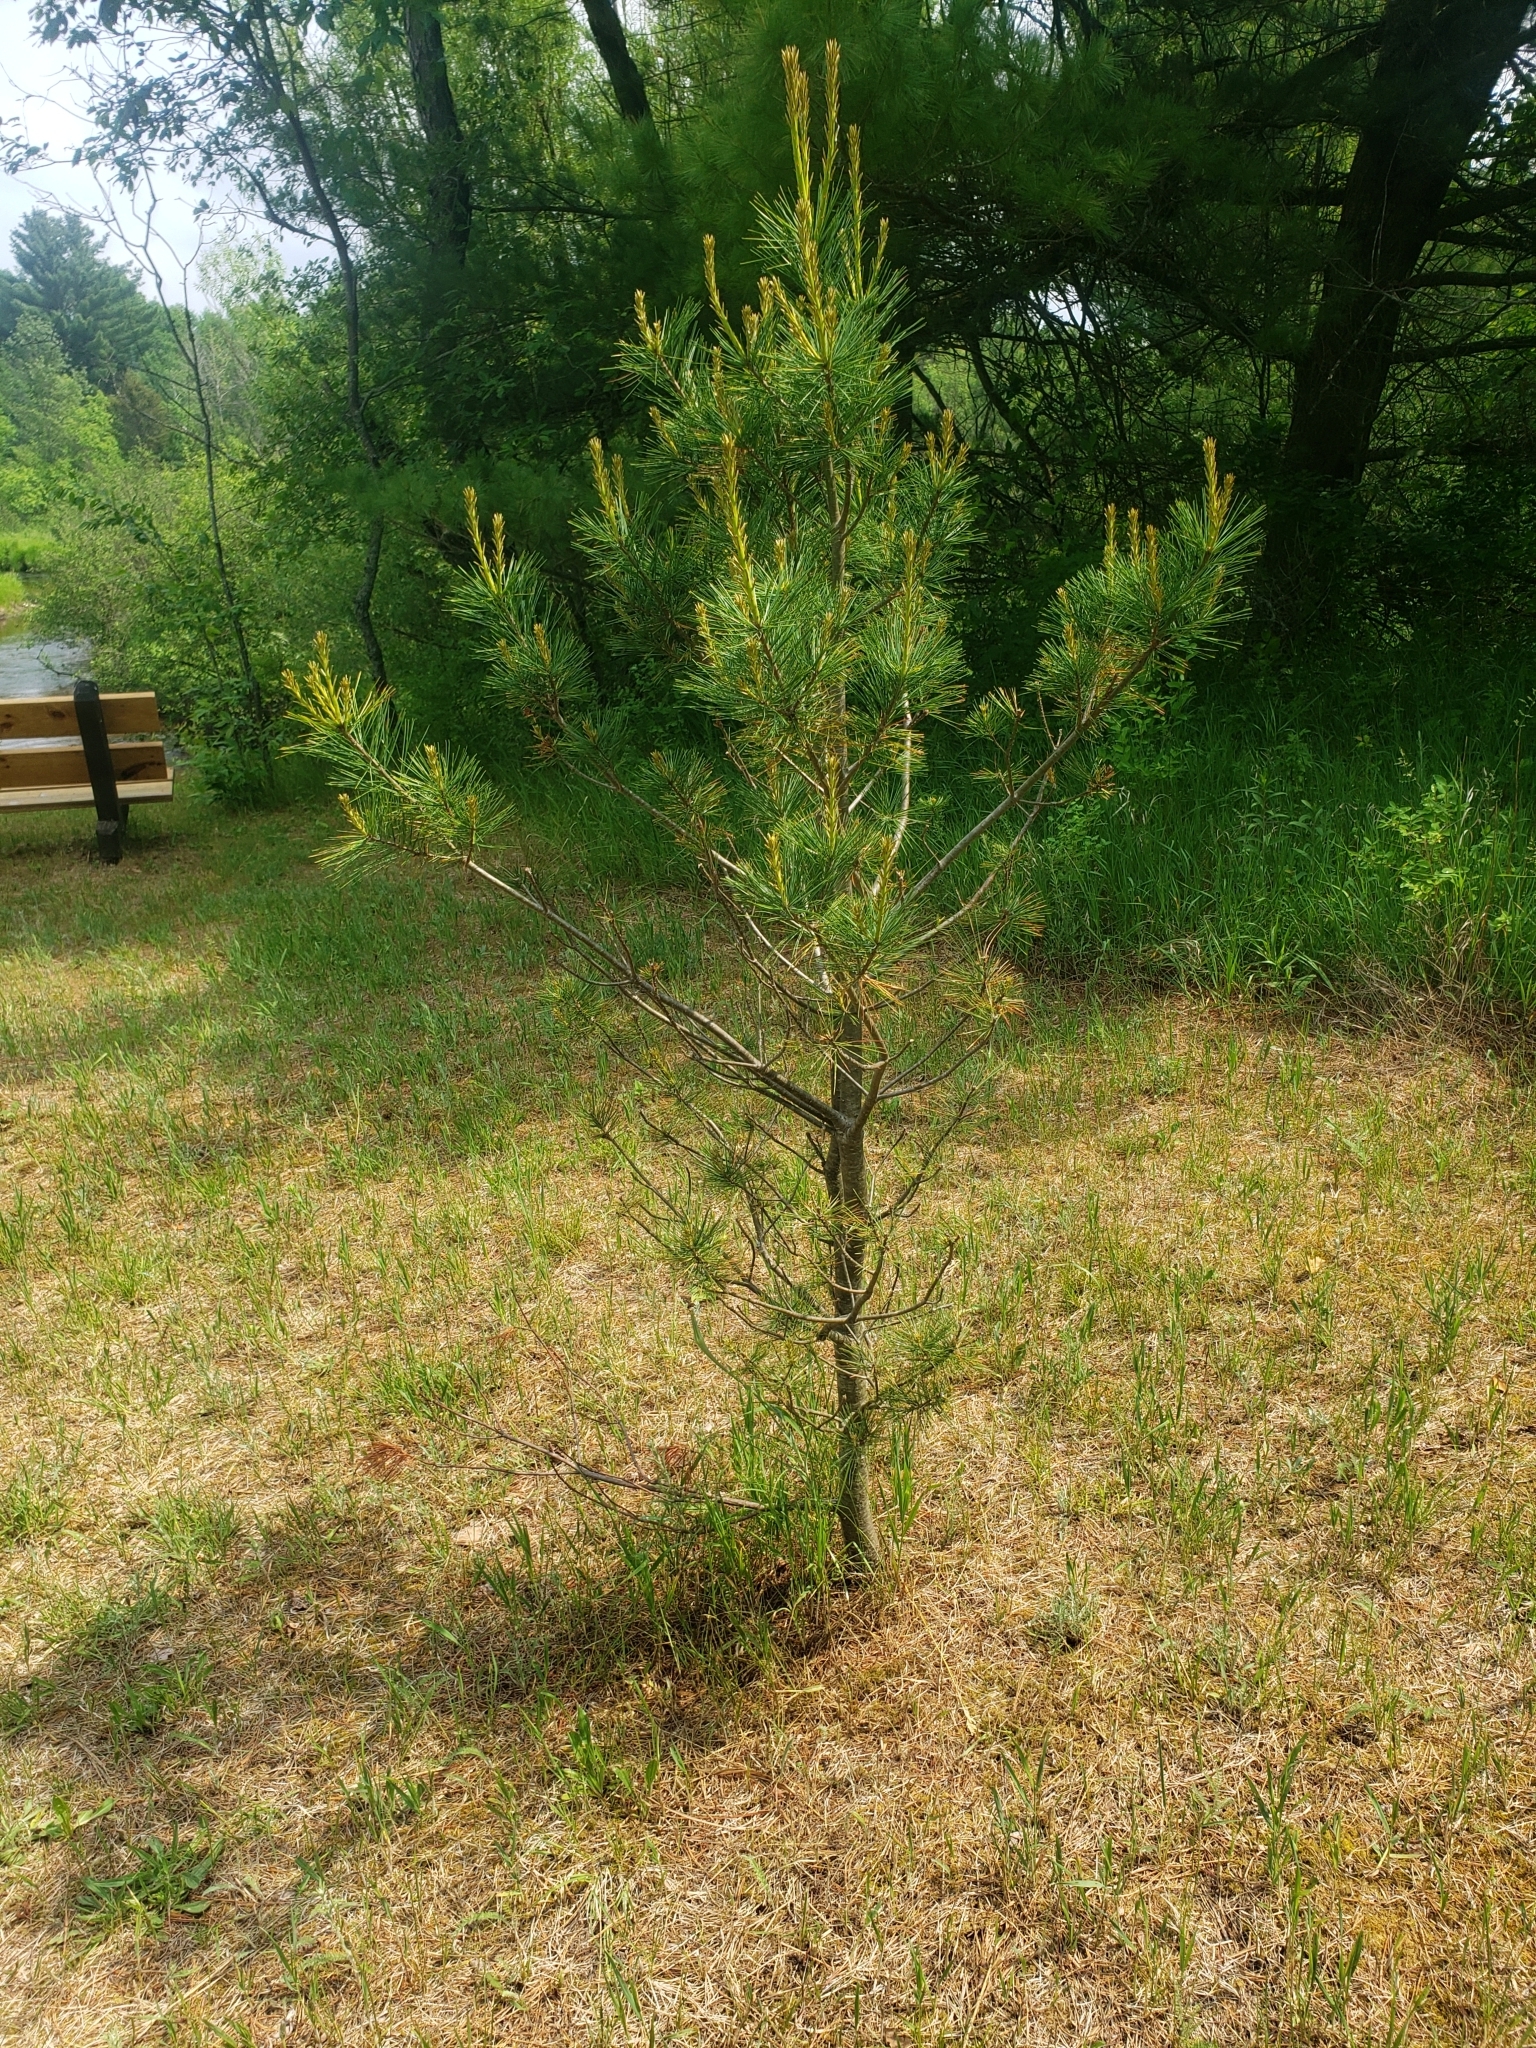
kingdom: Plantae
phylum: Tracheophyta
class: Pinopsida
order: Pinales
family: Pinaceae
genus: Pinus
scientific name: Pinus strobus
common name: Weymouth pine
